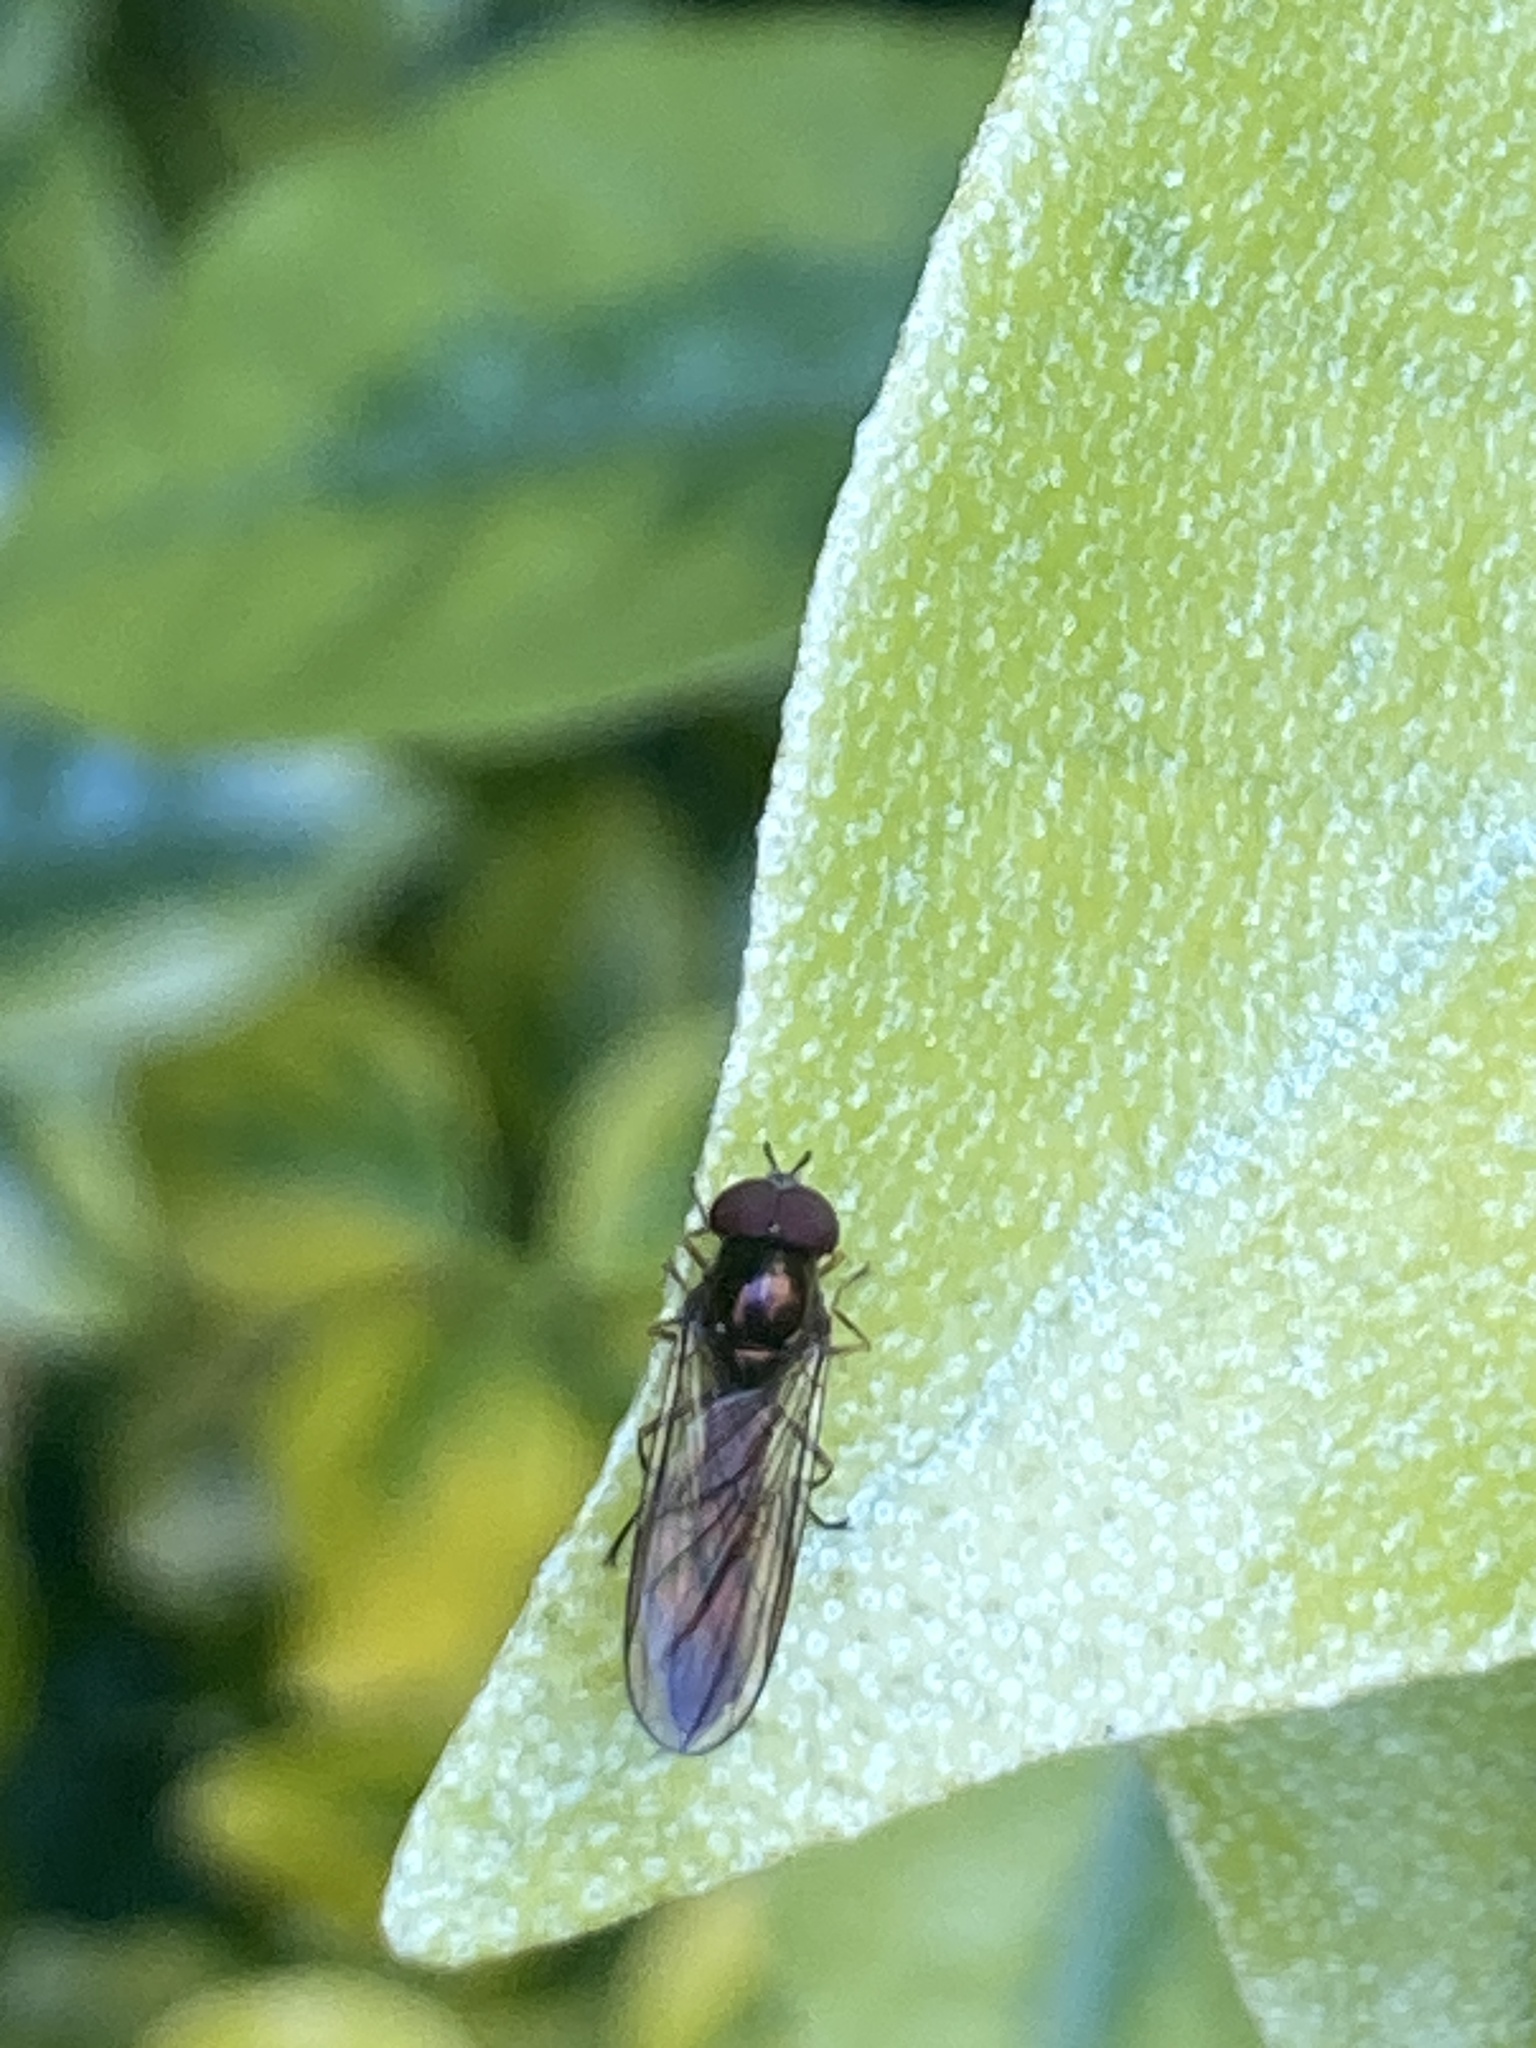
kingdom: Animalia
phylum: Arthropoda
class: Insecta
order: Diptera
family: Syrphidae
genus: Melanostoma
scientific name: Melanostoma scalare
